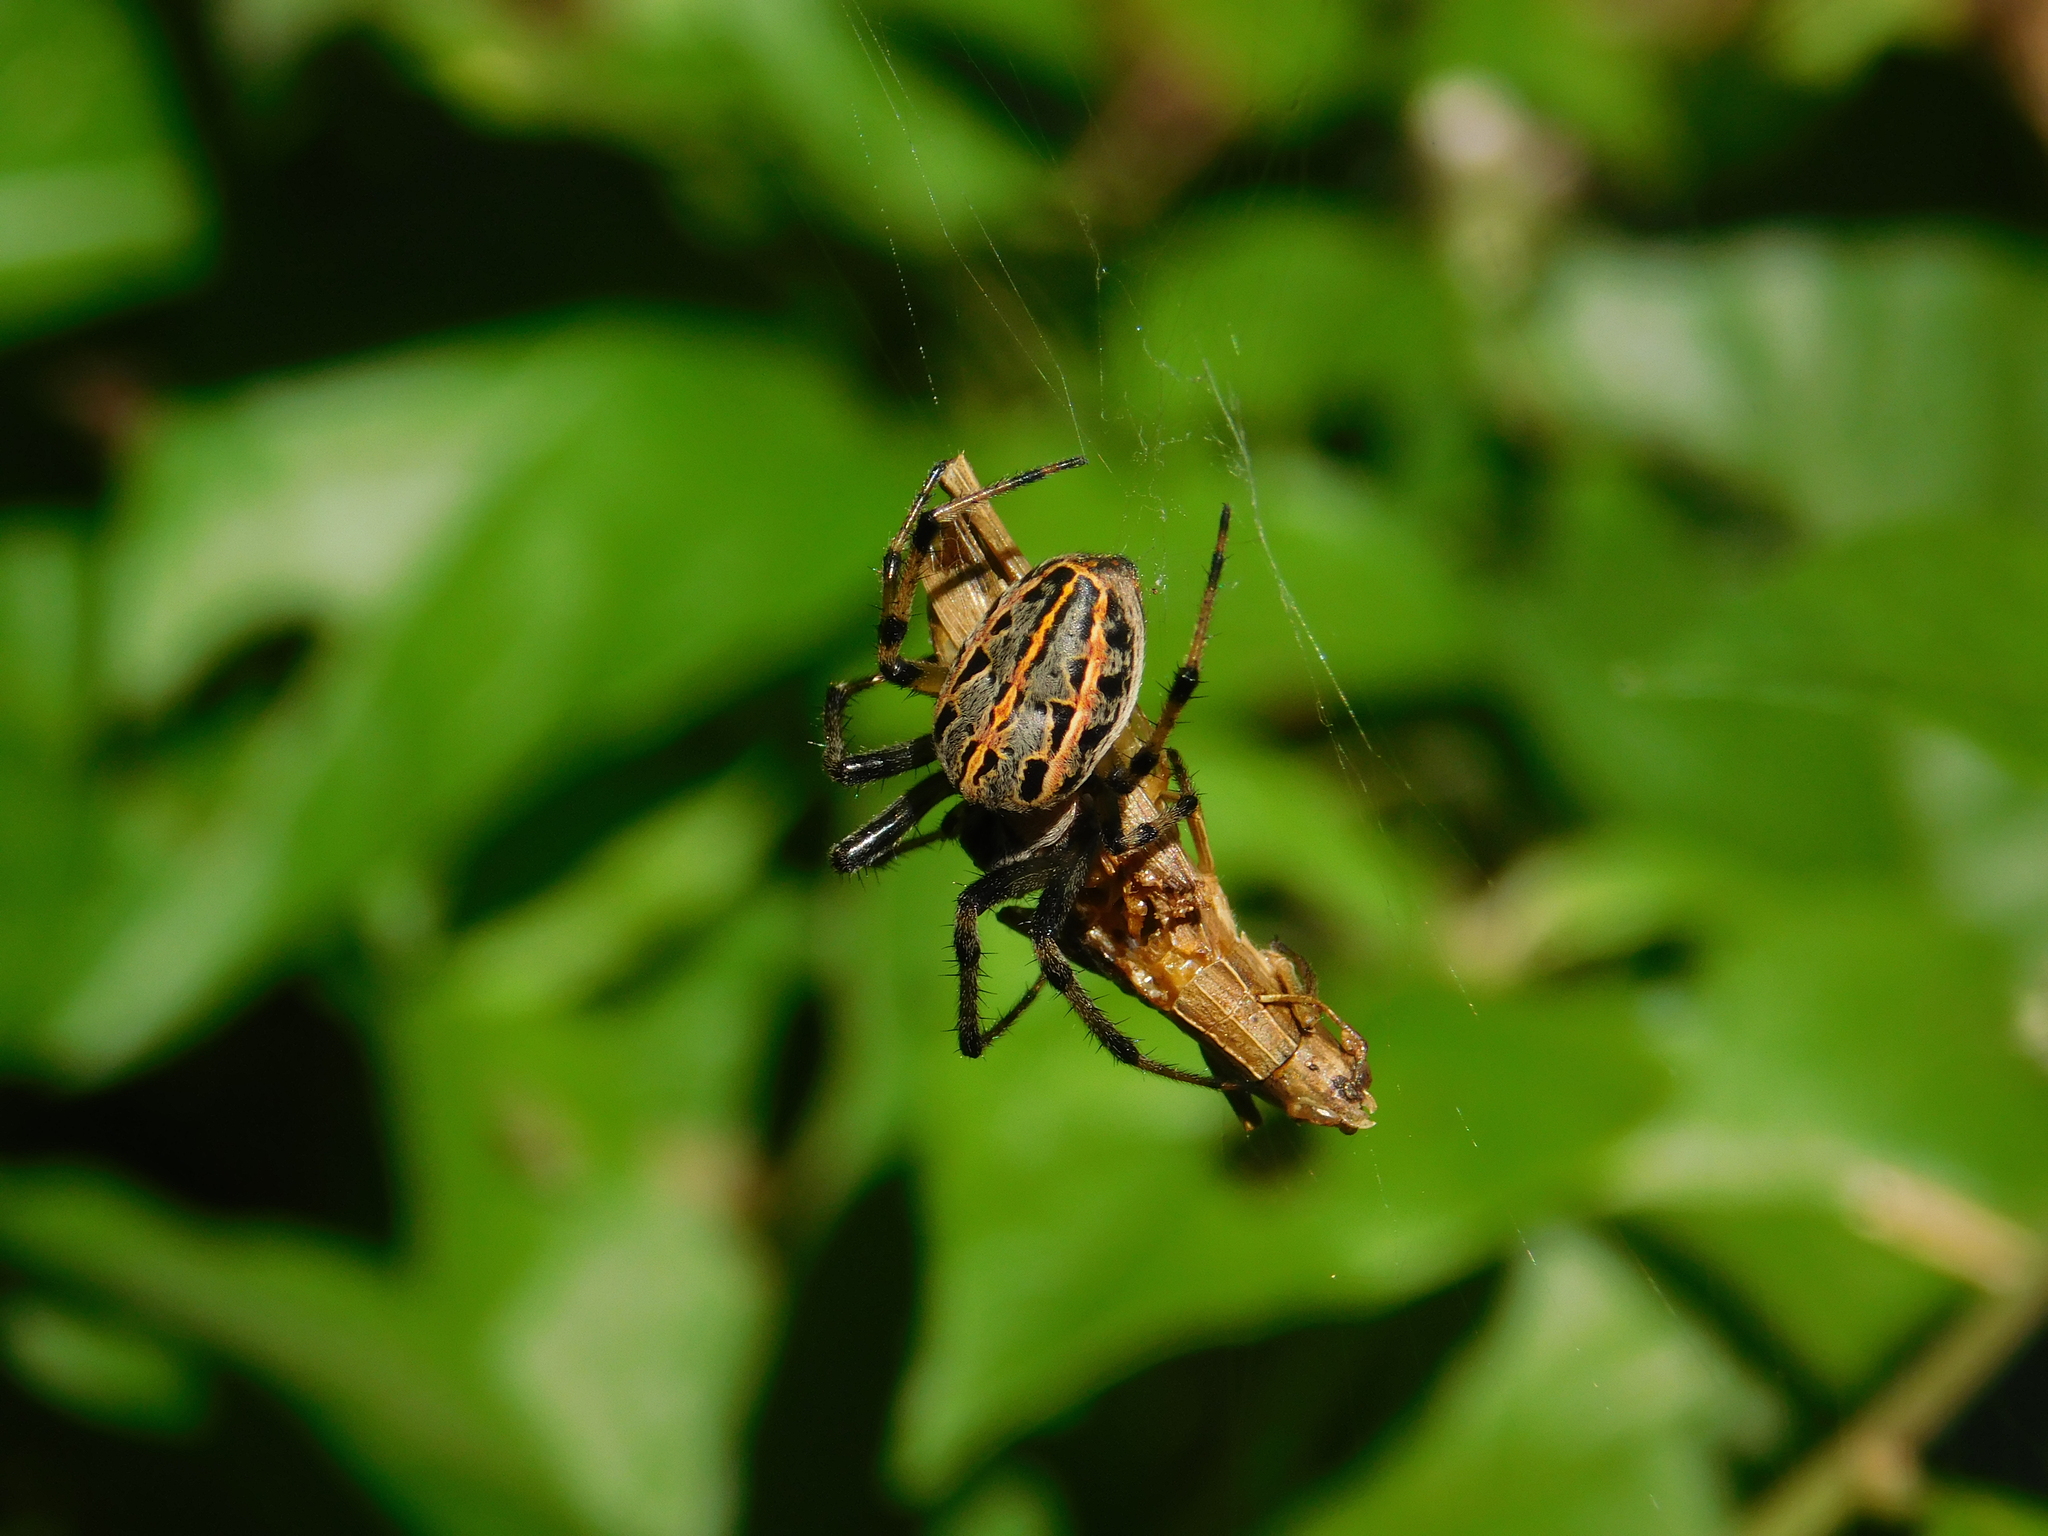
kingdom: Animalia
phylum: Arthropoda
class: Arachnida
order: Araneae
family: Araneidae
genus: Alpaida
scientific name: Alpaida veniliae
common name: Orb weavers
